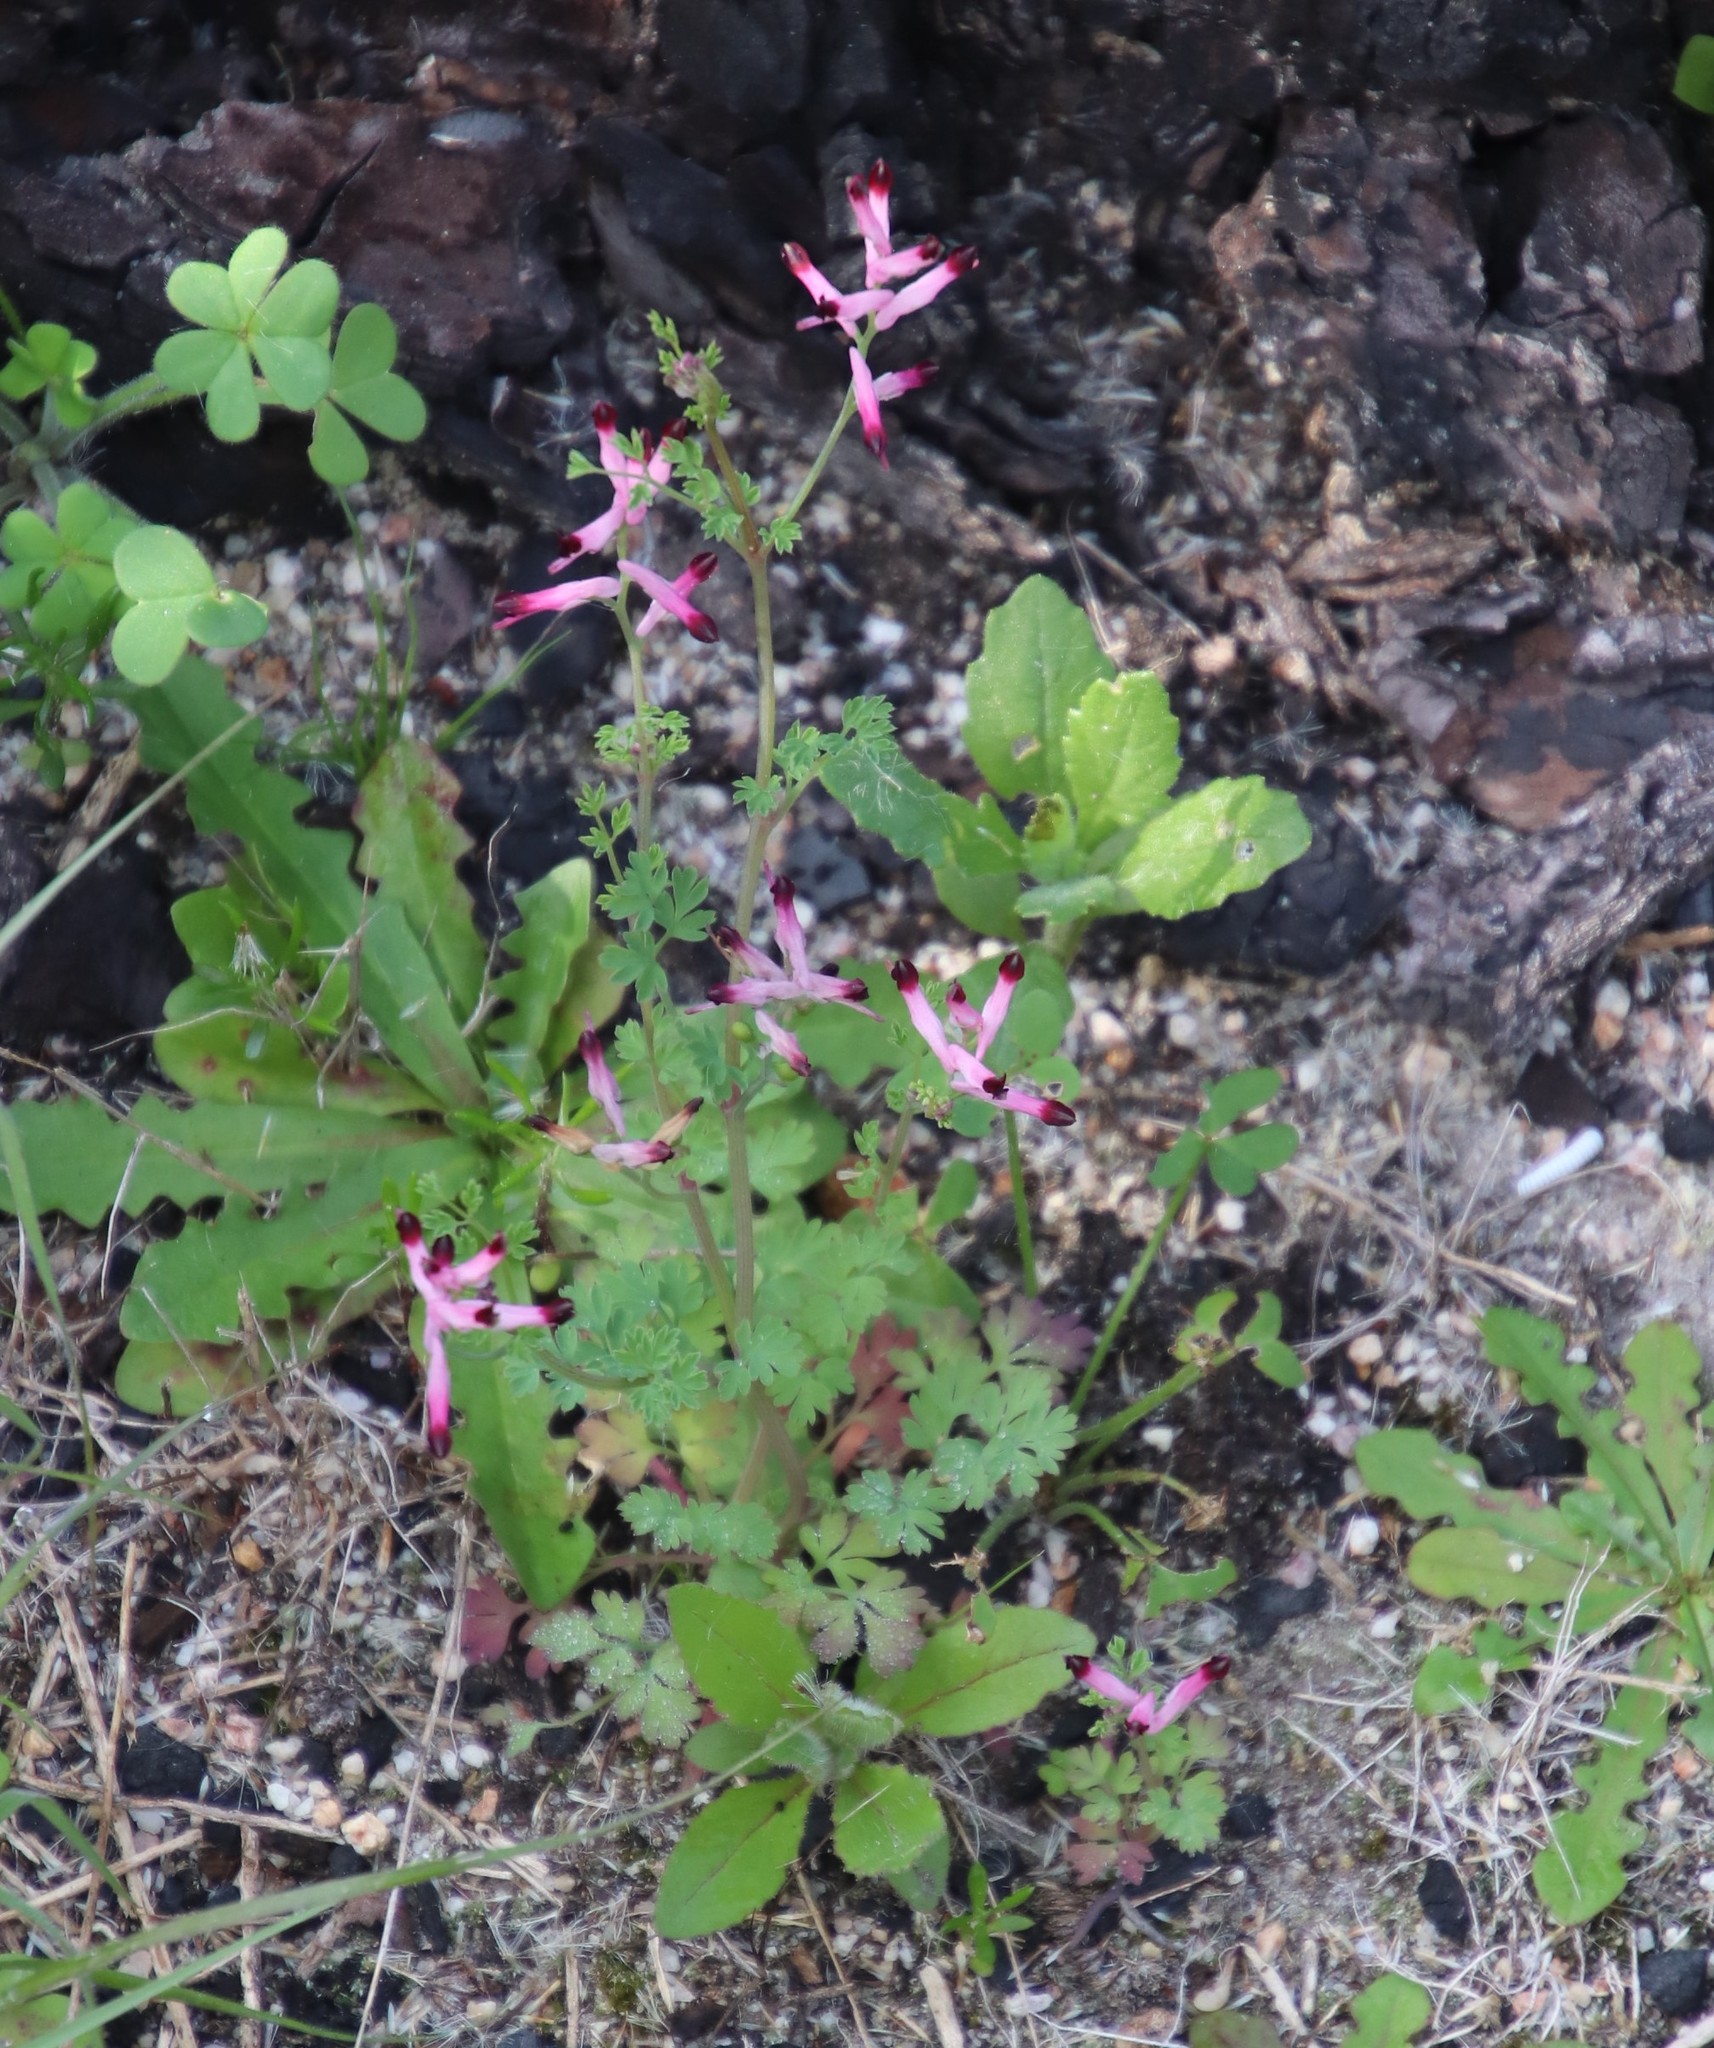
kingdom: Plantae
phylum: Tracheophyta
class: Magnoliopsida
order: Ranunculales
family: Papaveraceae
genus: Fumaria
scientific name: Fumaria muralis
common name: Common ramping-fumitory
